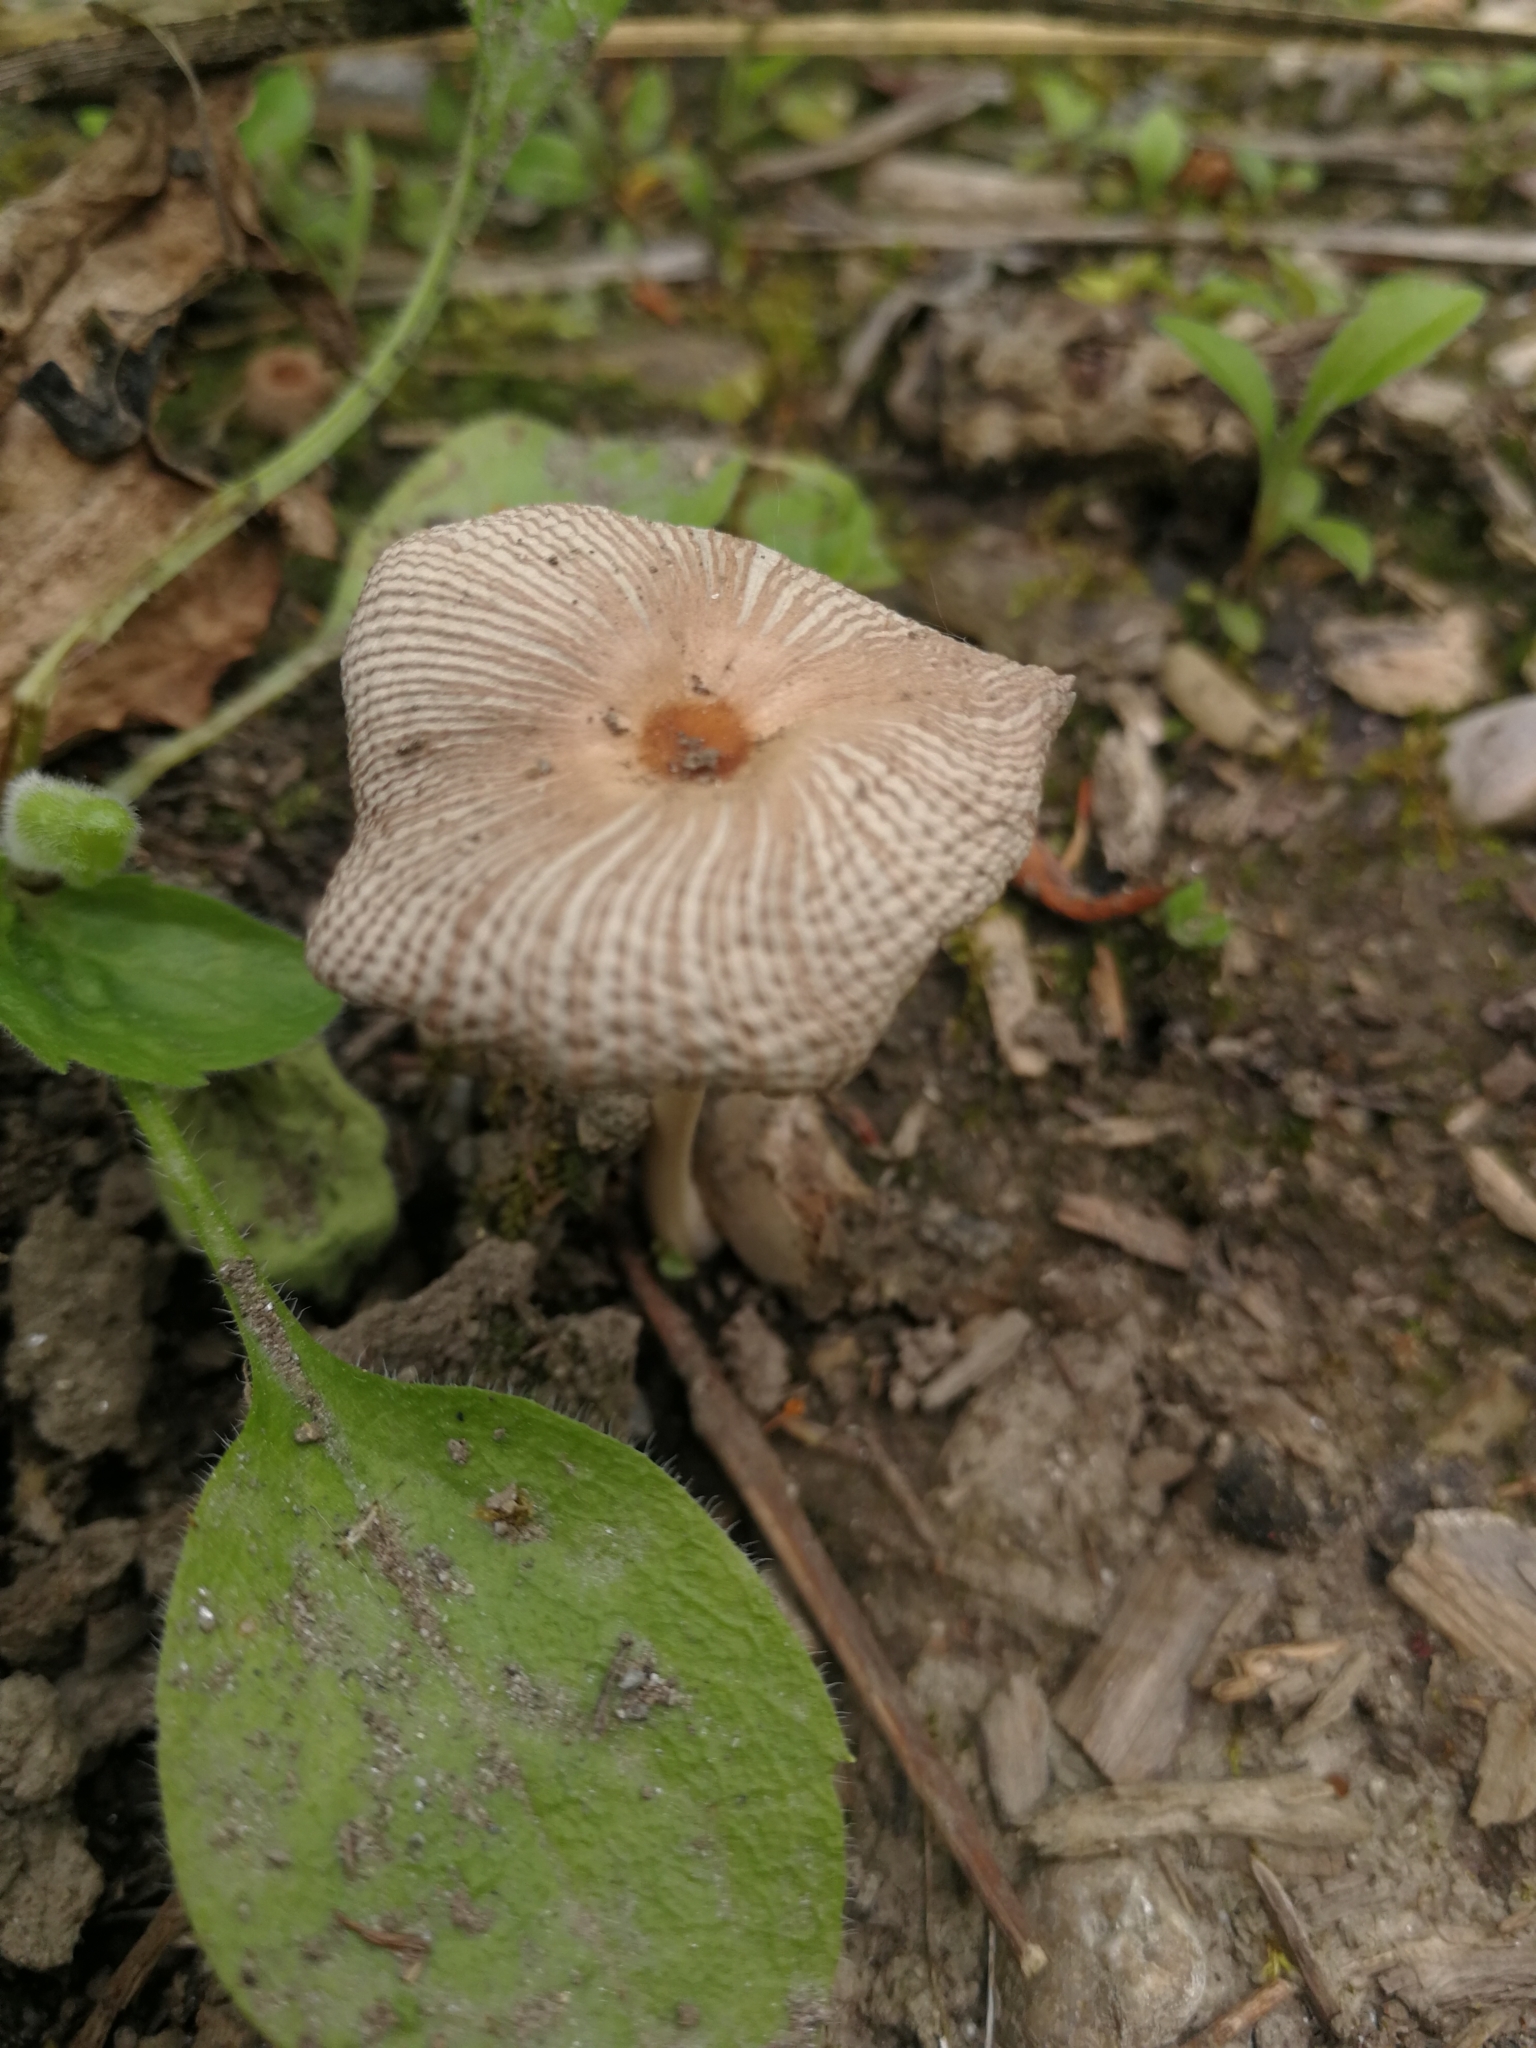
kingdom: Fungi
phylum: Basidiomycota
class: Agaricomycetes
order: Agaricales
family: Psathyrellaceae
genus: Parasola
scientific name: Parasola auricoma
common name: Goldenhaired inkcap
